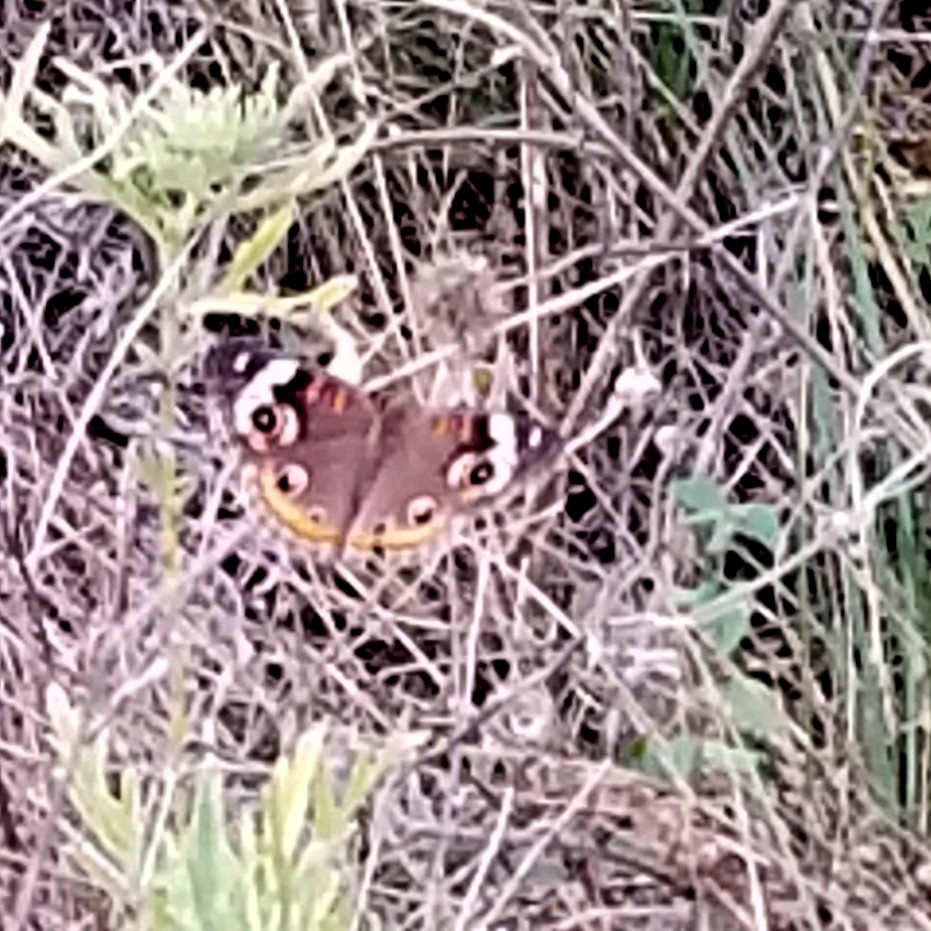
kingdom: Animalia
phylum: Arthropoda
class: Insecta
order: Lepidoptera
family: Nymphalidae
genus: Junonia
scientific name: Junonia coenia
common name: Common buckeye
